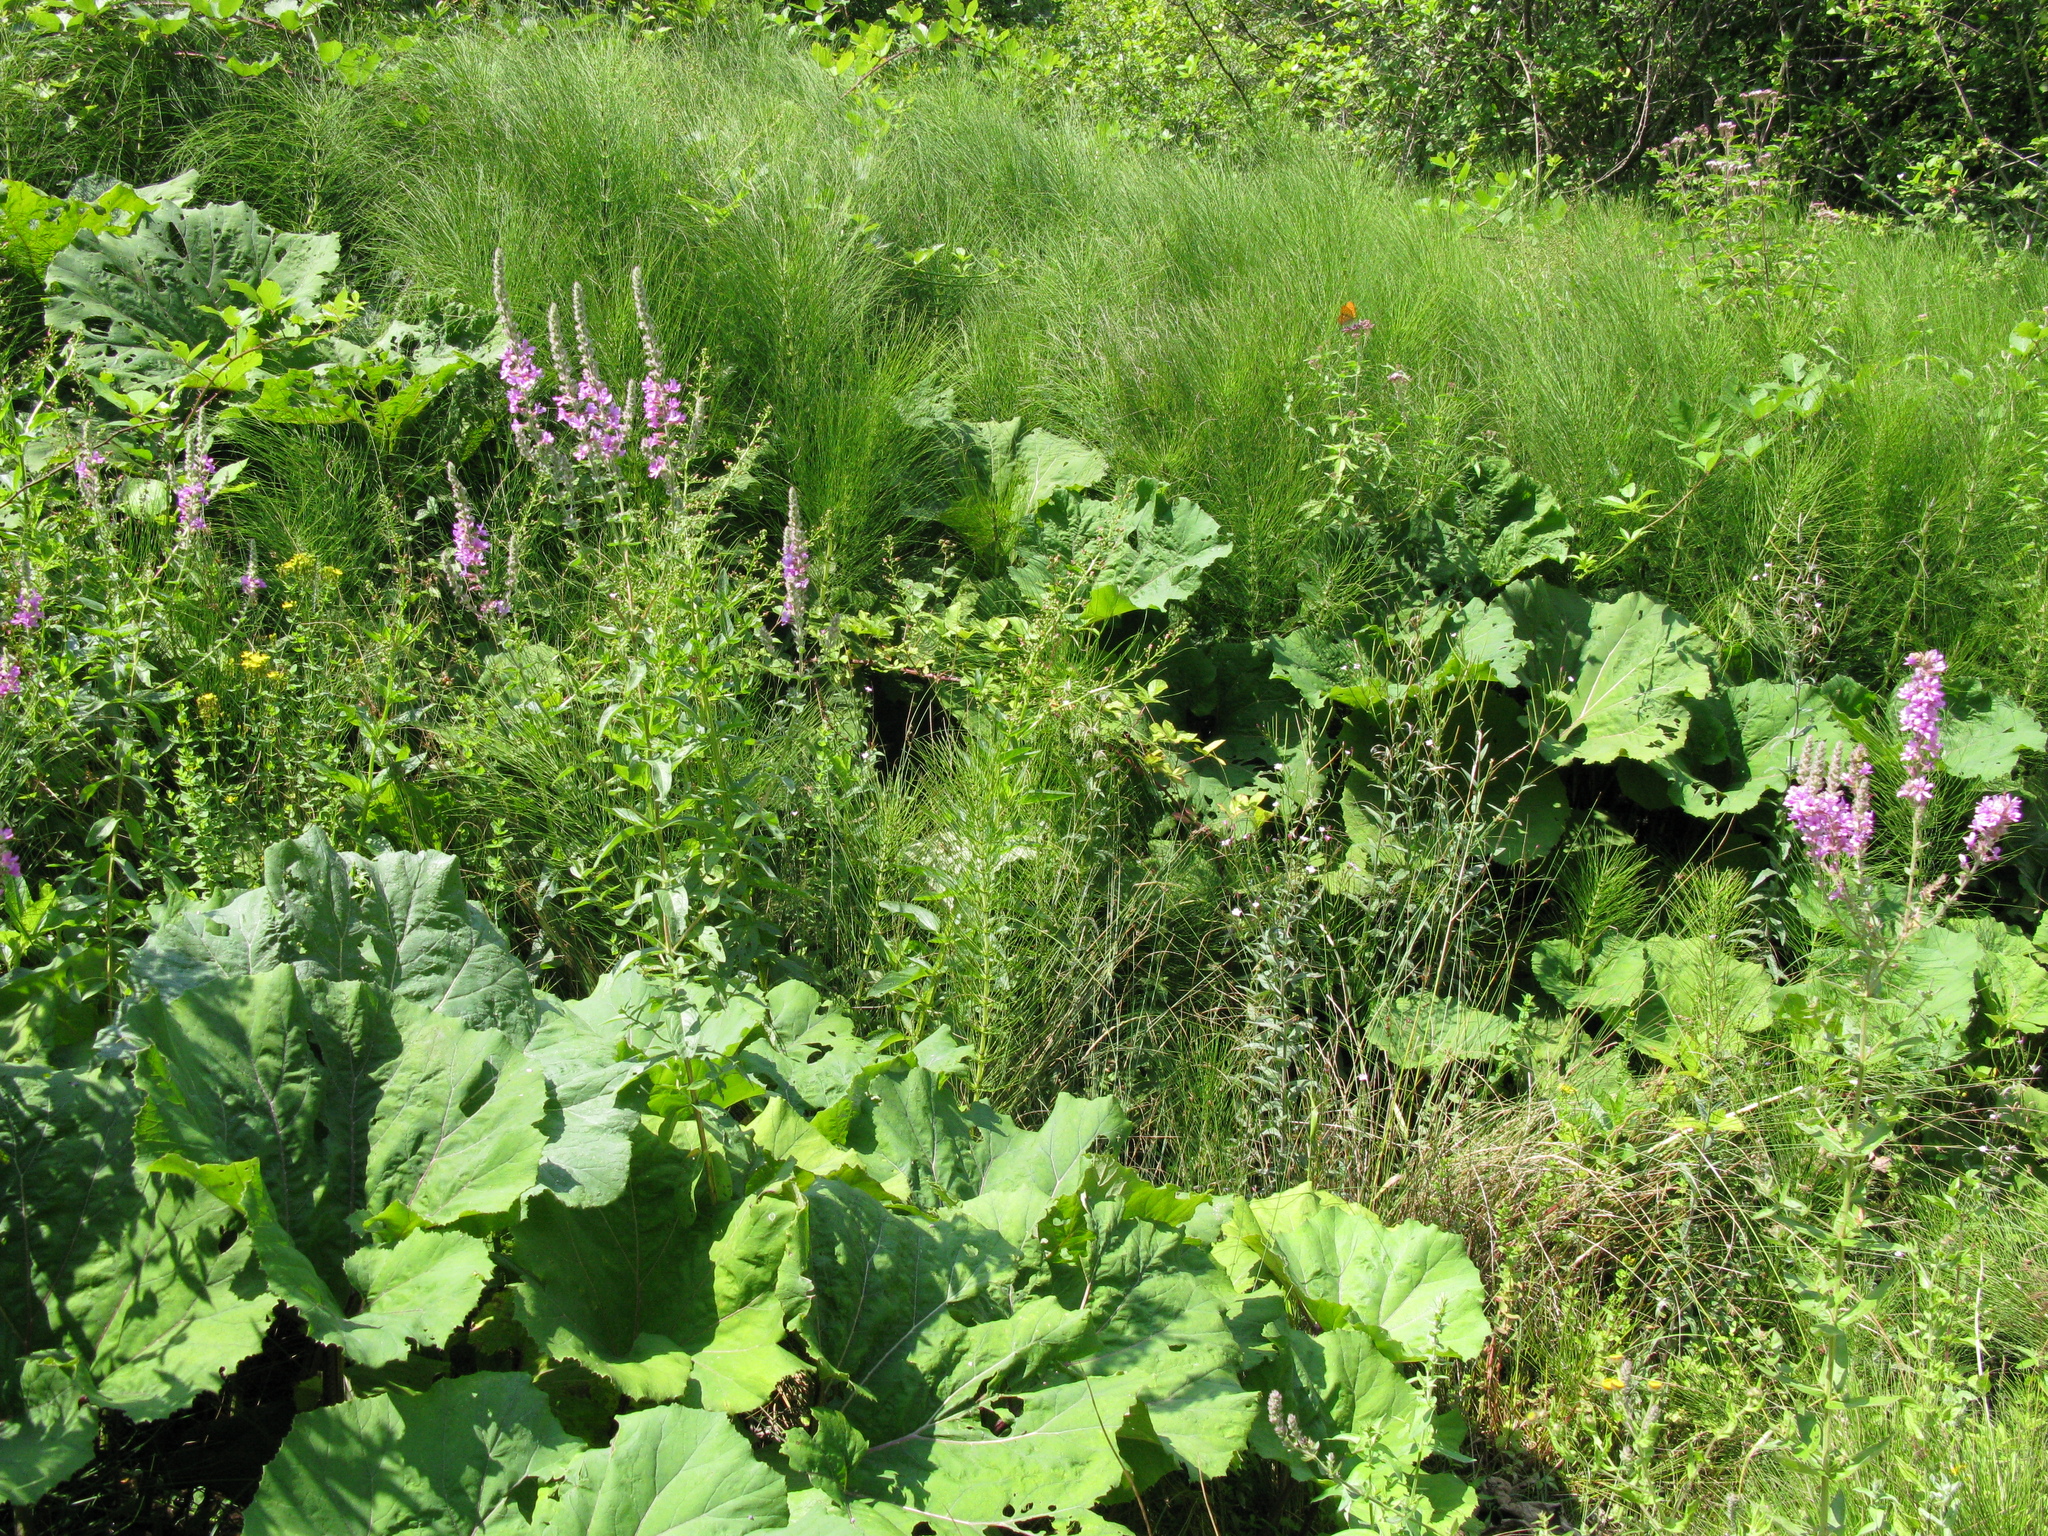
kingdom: Plantae
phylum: Tracheophyta
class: Magnoliopsida
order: Myrtales
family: Lythraceae
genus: Lythrum
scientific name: Lythrum salicaria
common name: Purple loosestrife
